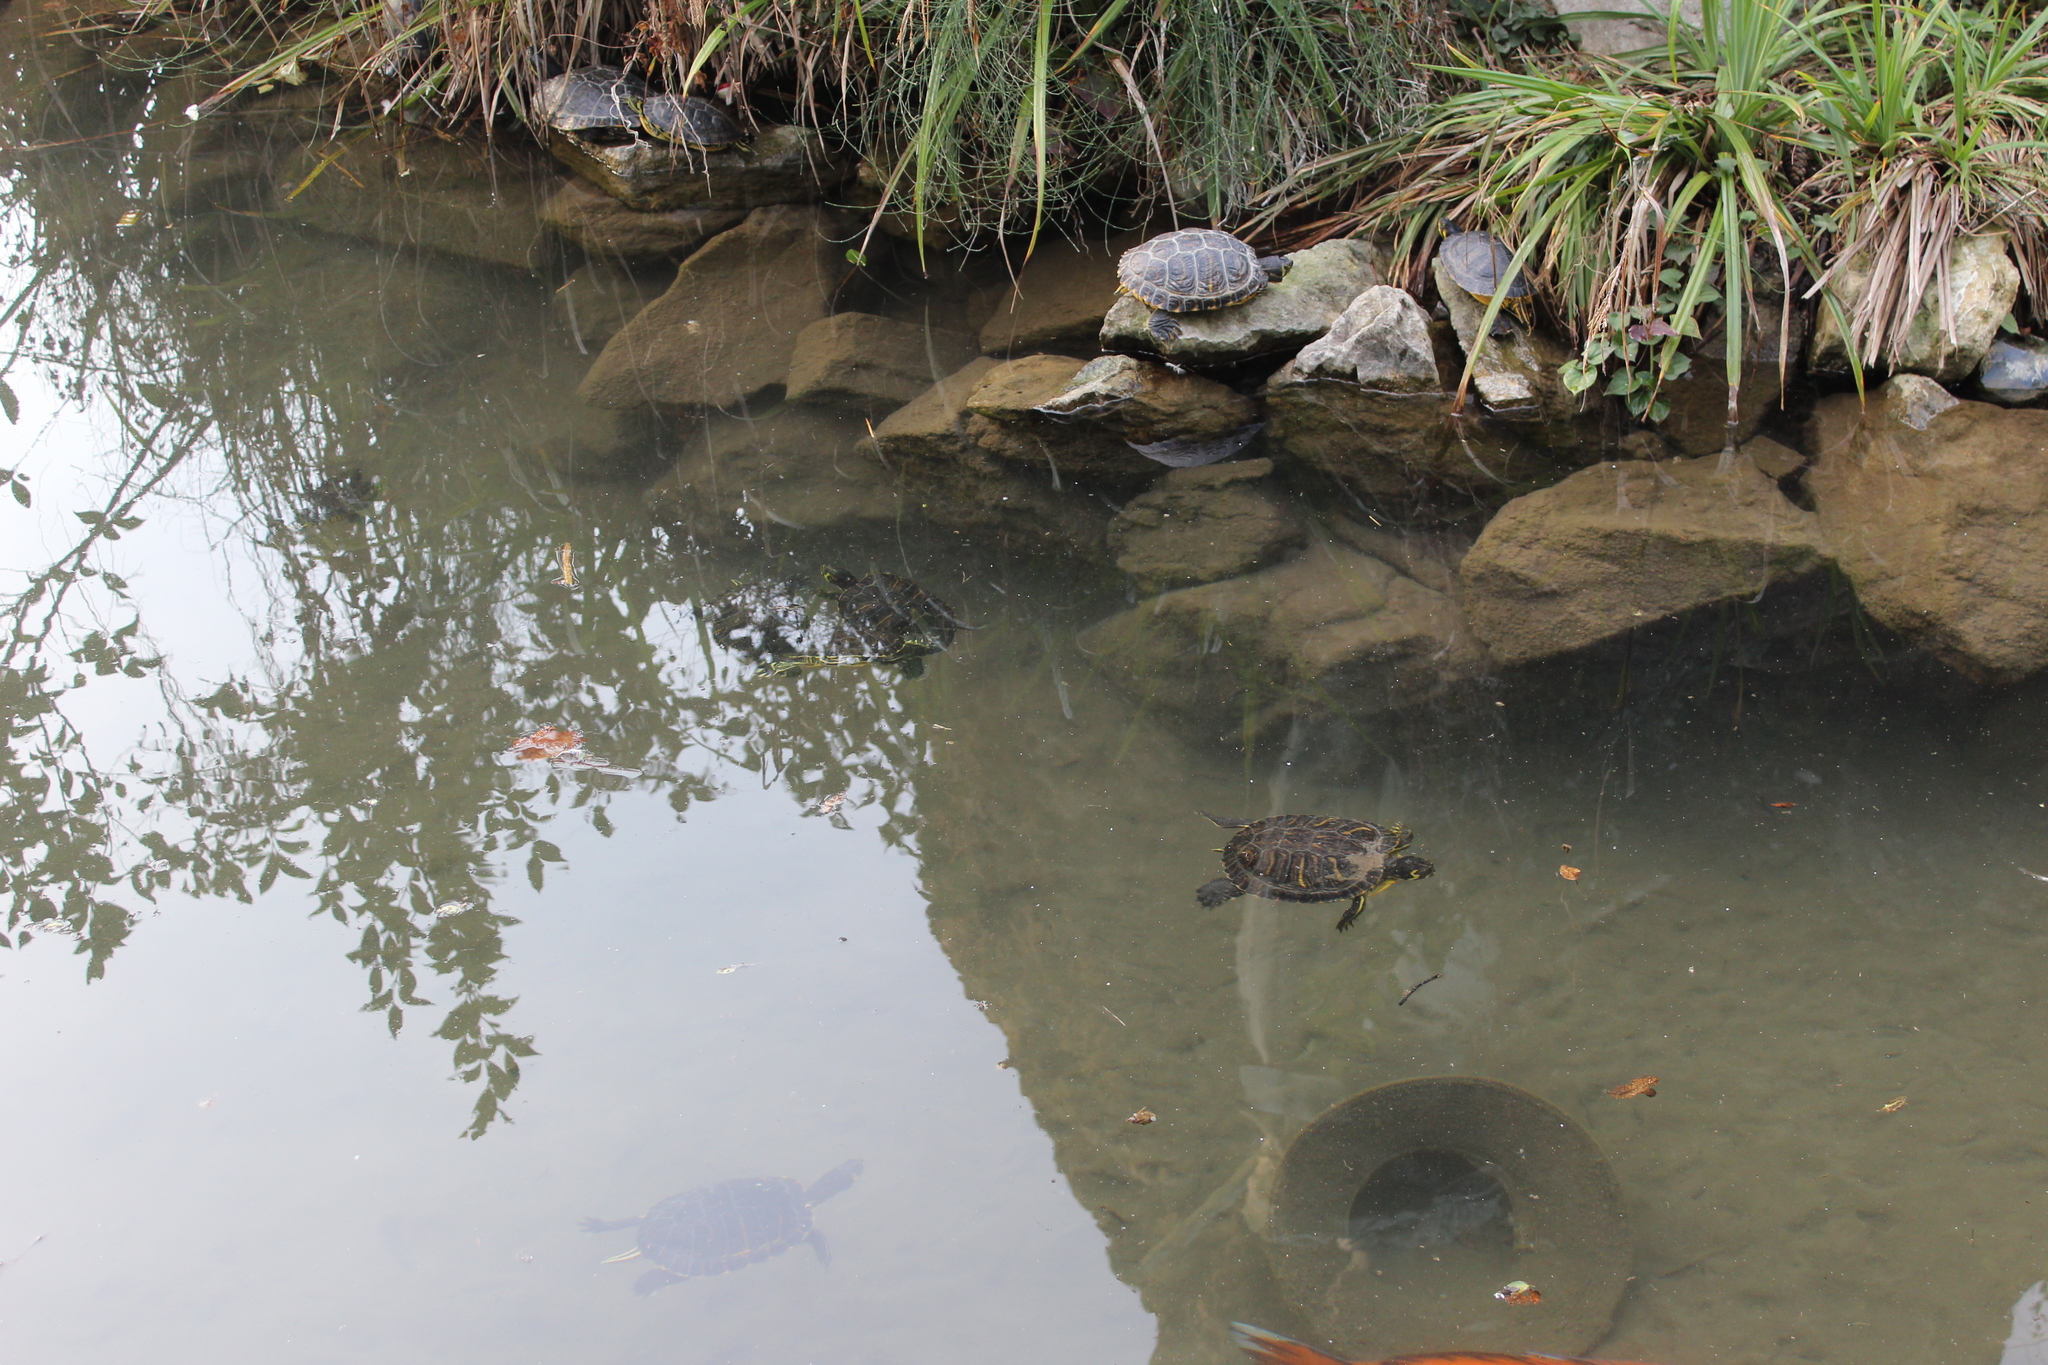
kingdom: Animalia
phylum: Chordata
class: Testudines
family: Emydidae
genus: Trachemys
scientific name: Trachemys scripta
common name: Slider
